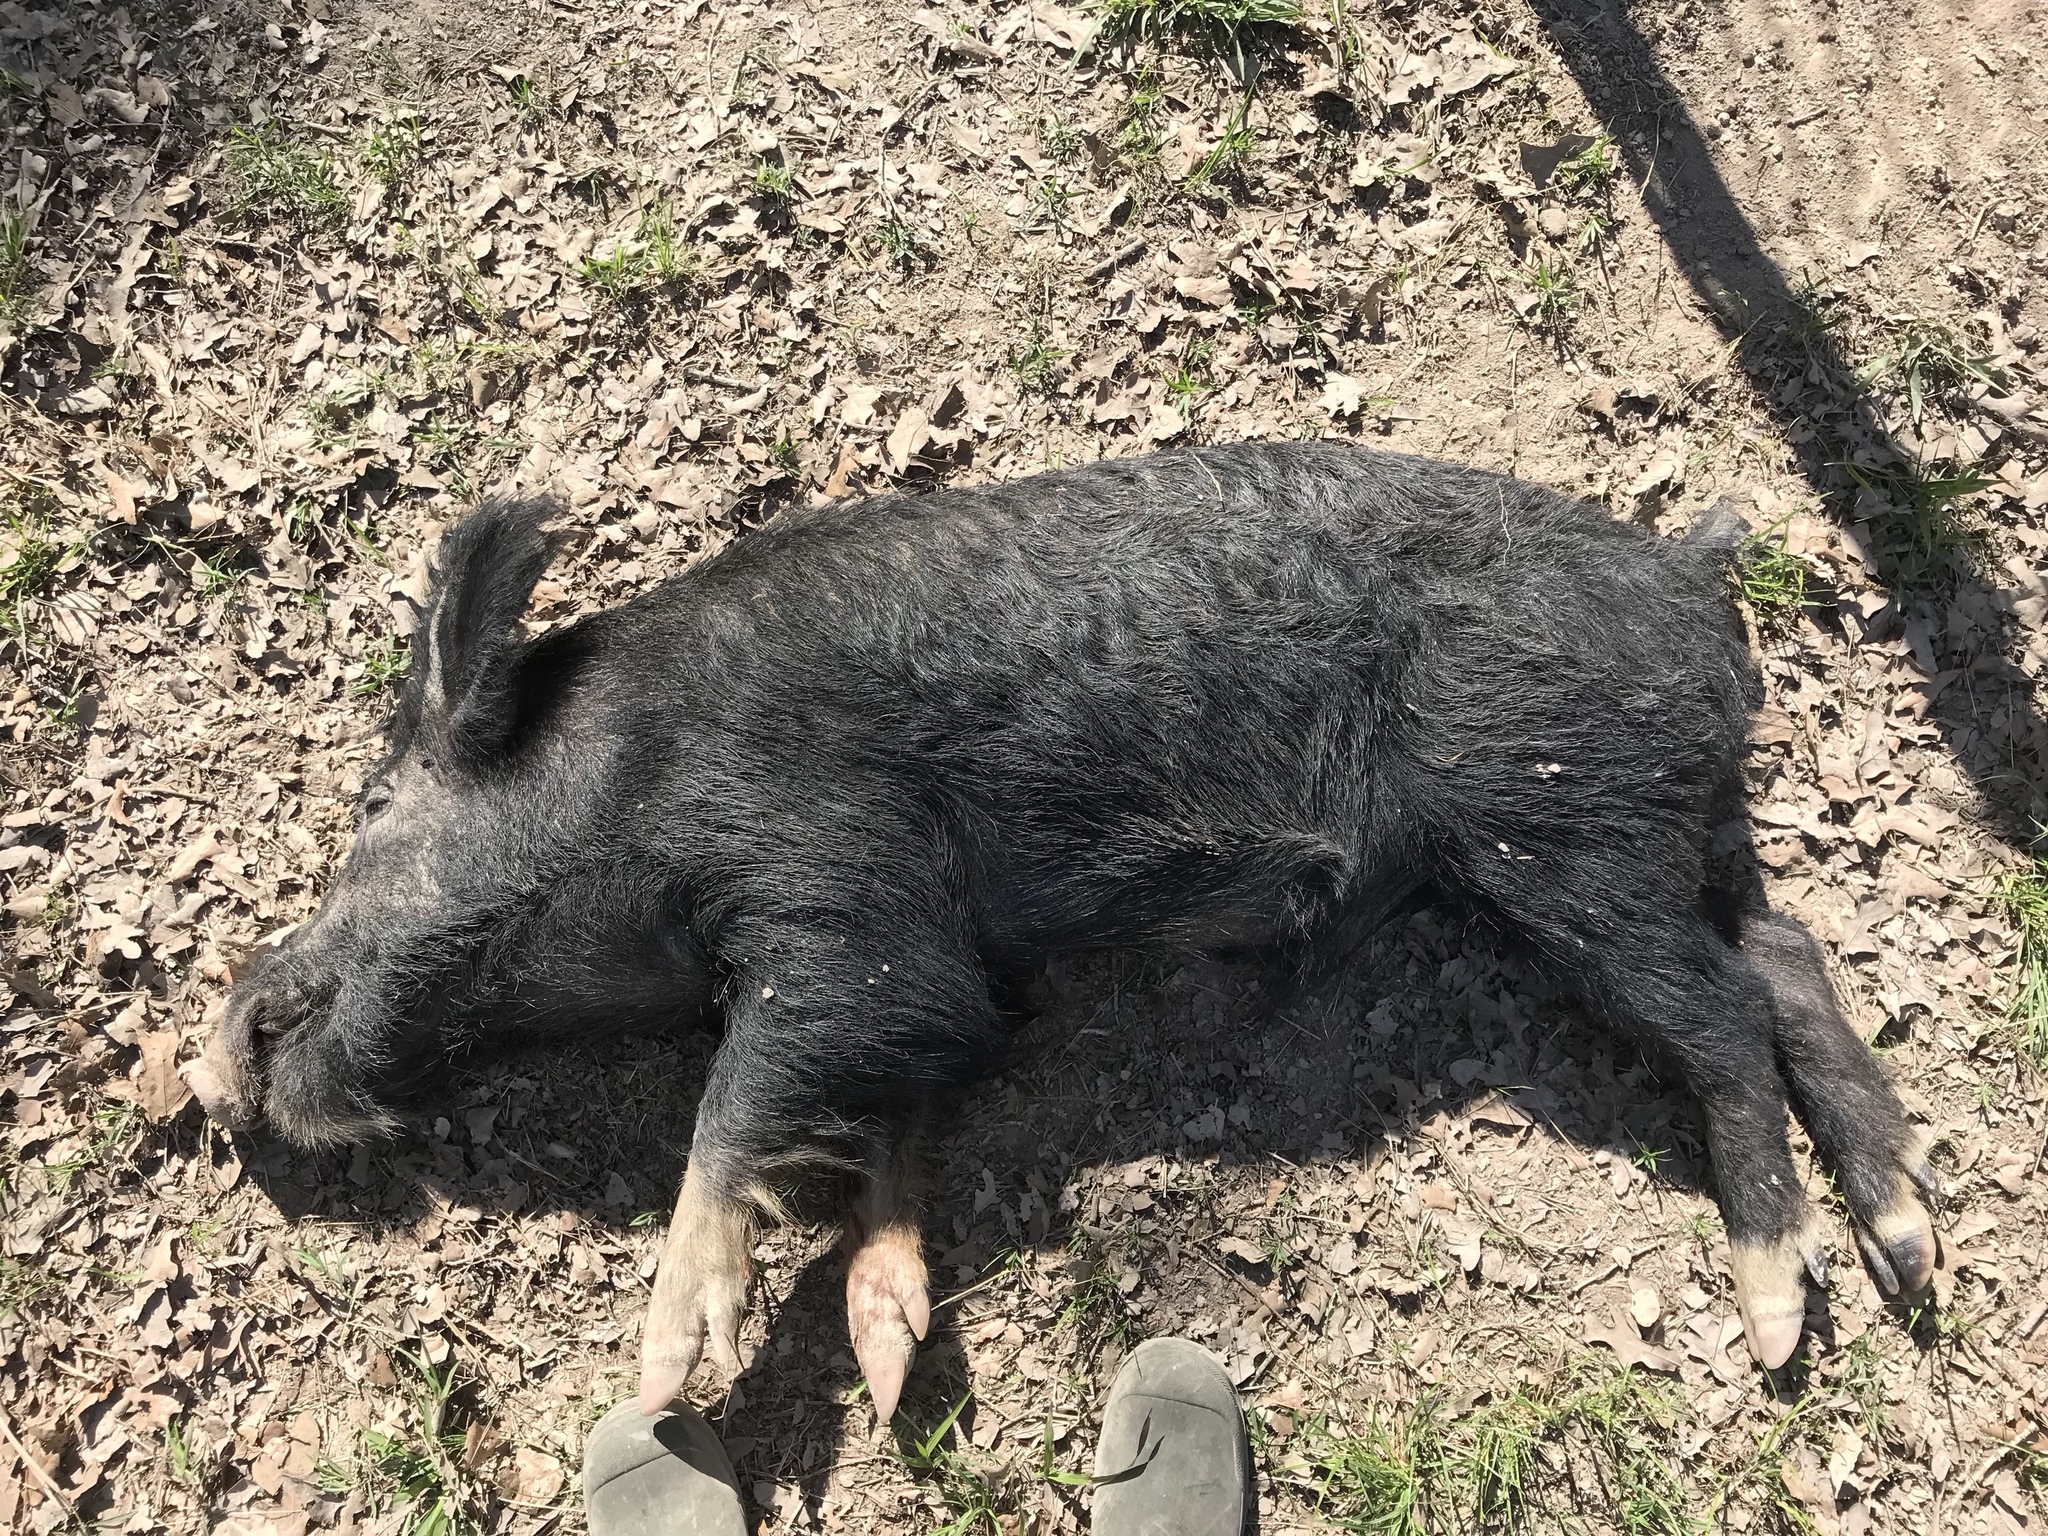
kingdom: Animalia
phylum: Chordata
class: Mammalia
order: Artiodactyla
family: Suidae
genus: Sus
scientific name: Sus scrofa
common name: Wild boar
